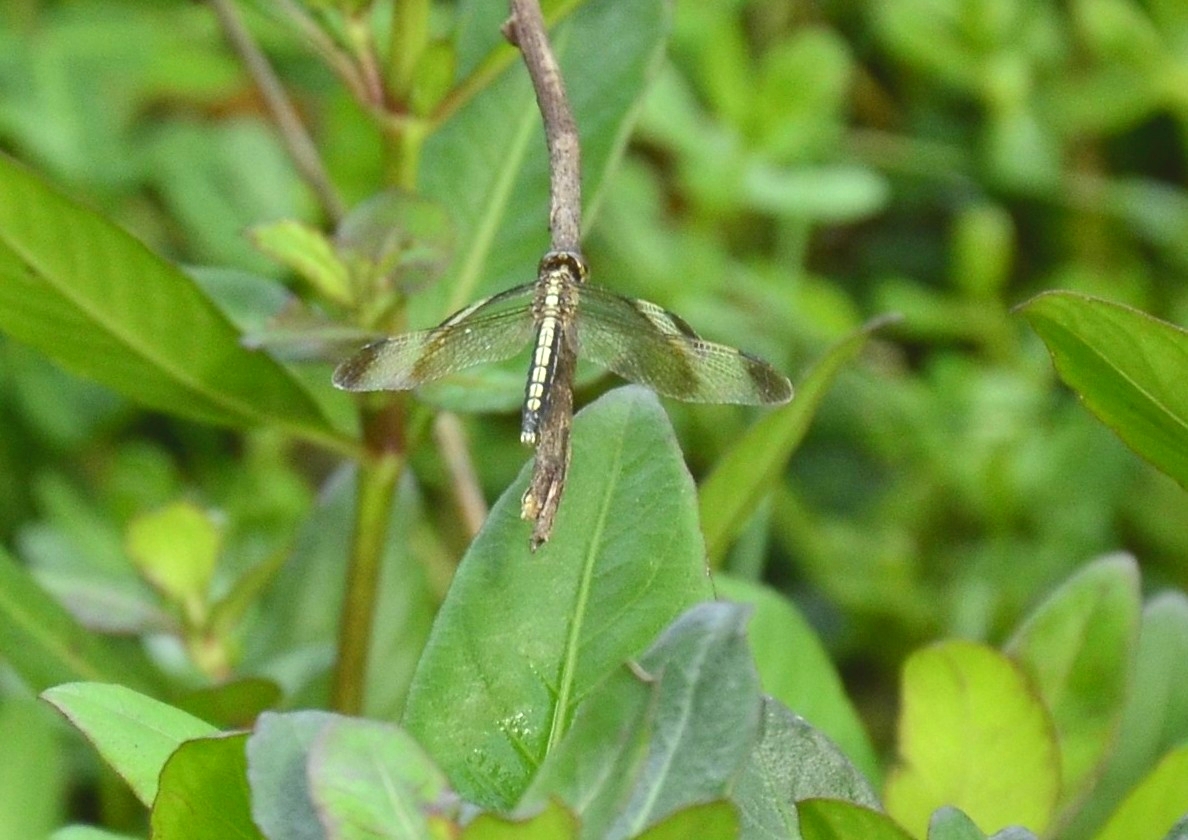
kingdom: Animalia
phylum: Arthropoda
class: Insecta
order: Odonata
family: Libellulidae
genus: Neurothemis
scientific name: Neurothemis tullia
